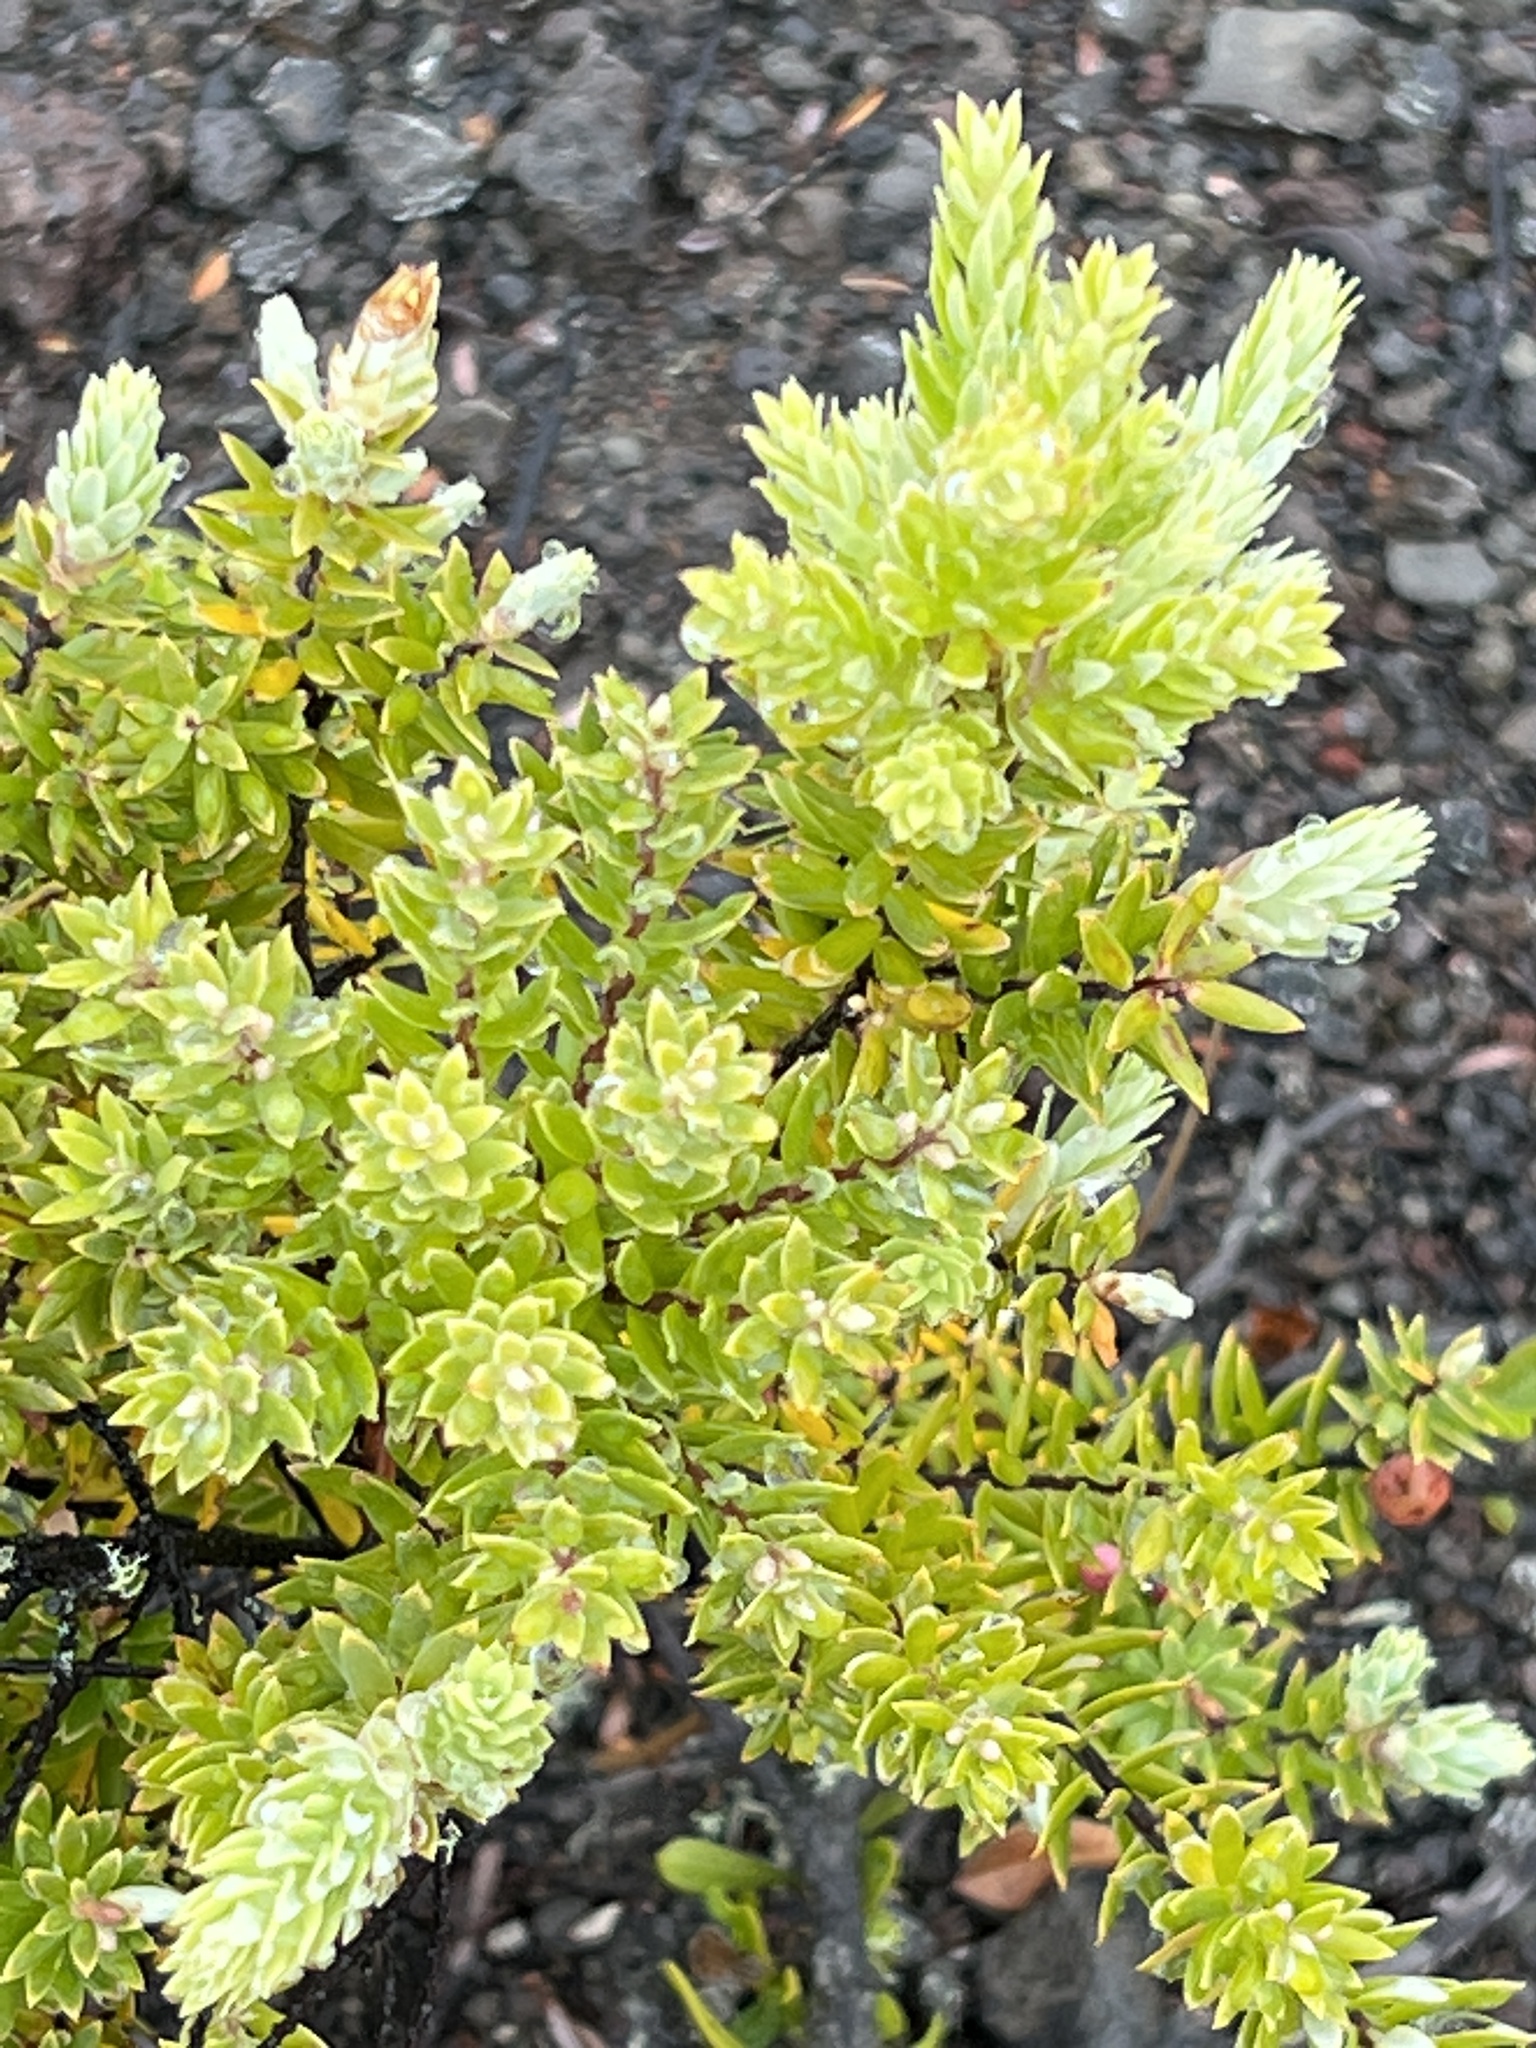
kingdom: Plantae
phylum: Tracheophyta
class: Magnoliopsida
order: Ericales
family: Ericaceae
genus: Leptecophylla
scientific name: Leptecophylla tameiameiae
